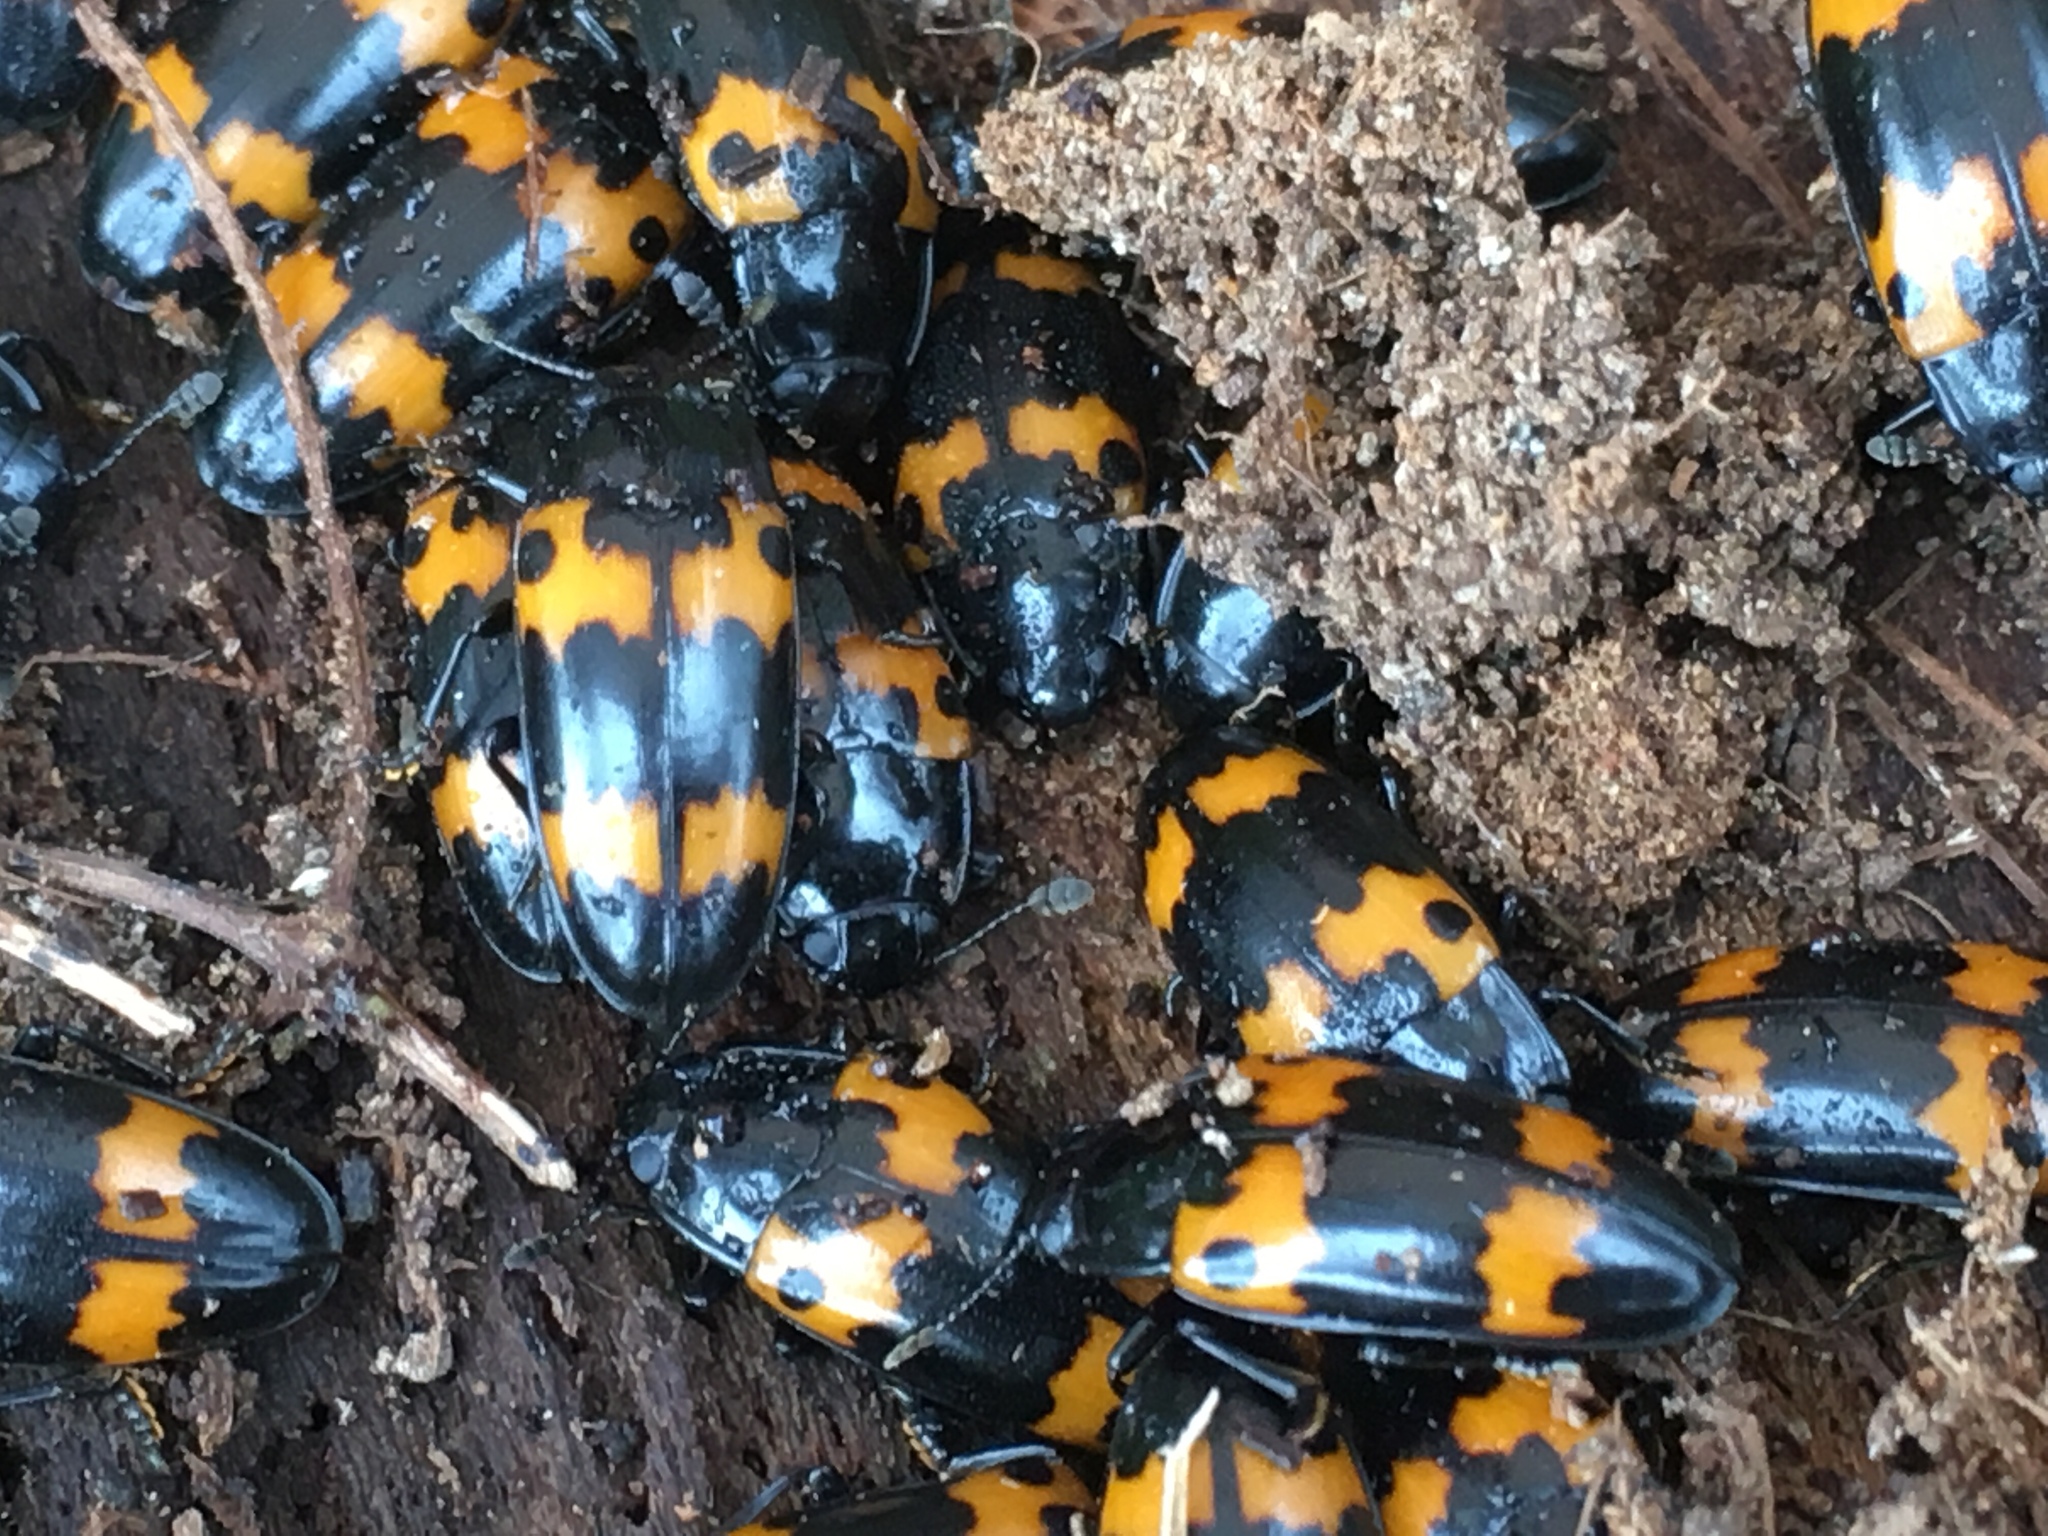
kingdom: Animalia
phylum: Arthropoda
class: Insecta
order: Coleoptera
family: Erotylidae
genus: Megalodacne
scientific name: Megalodacne fasciata
